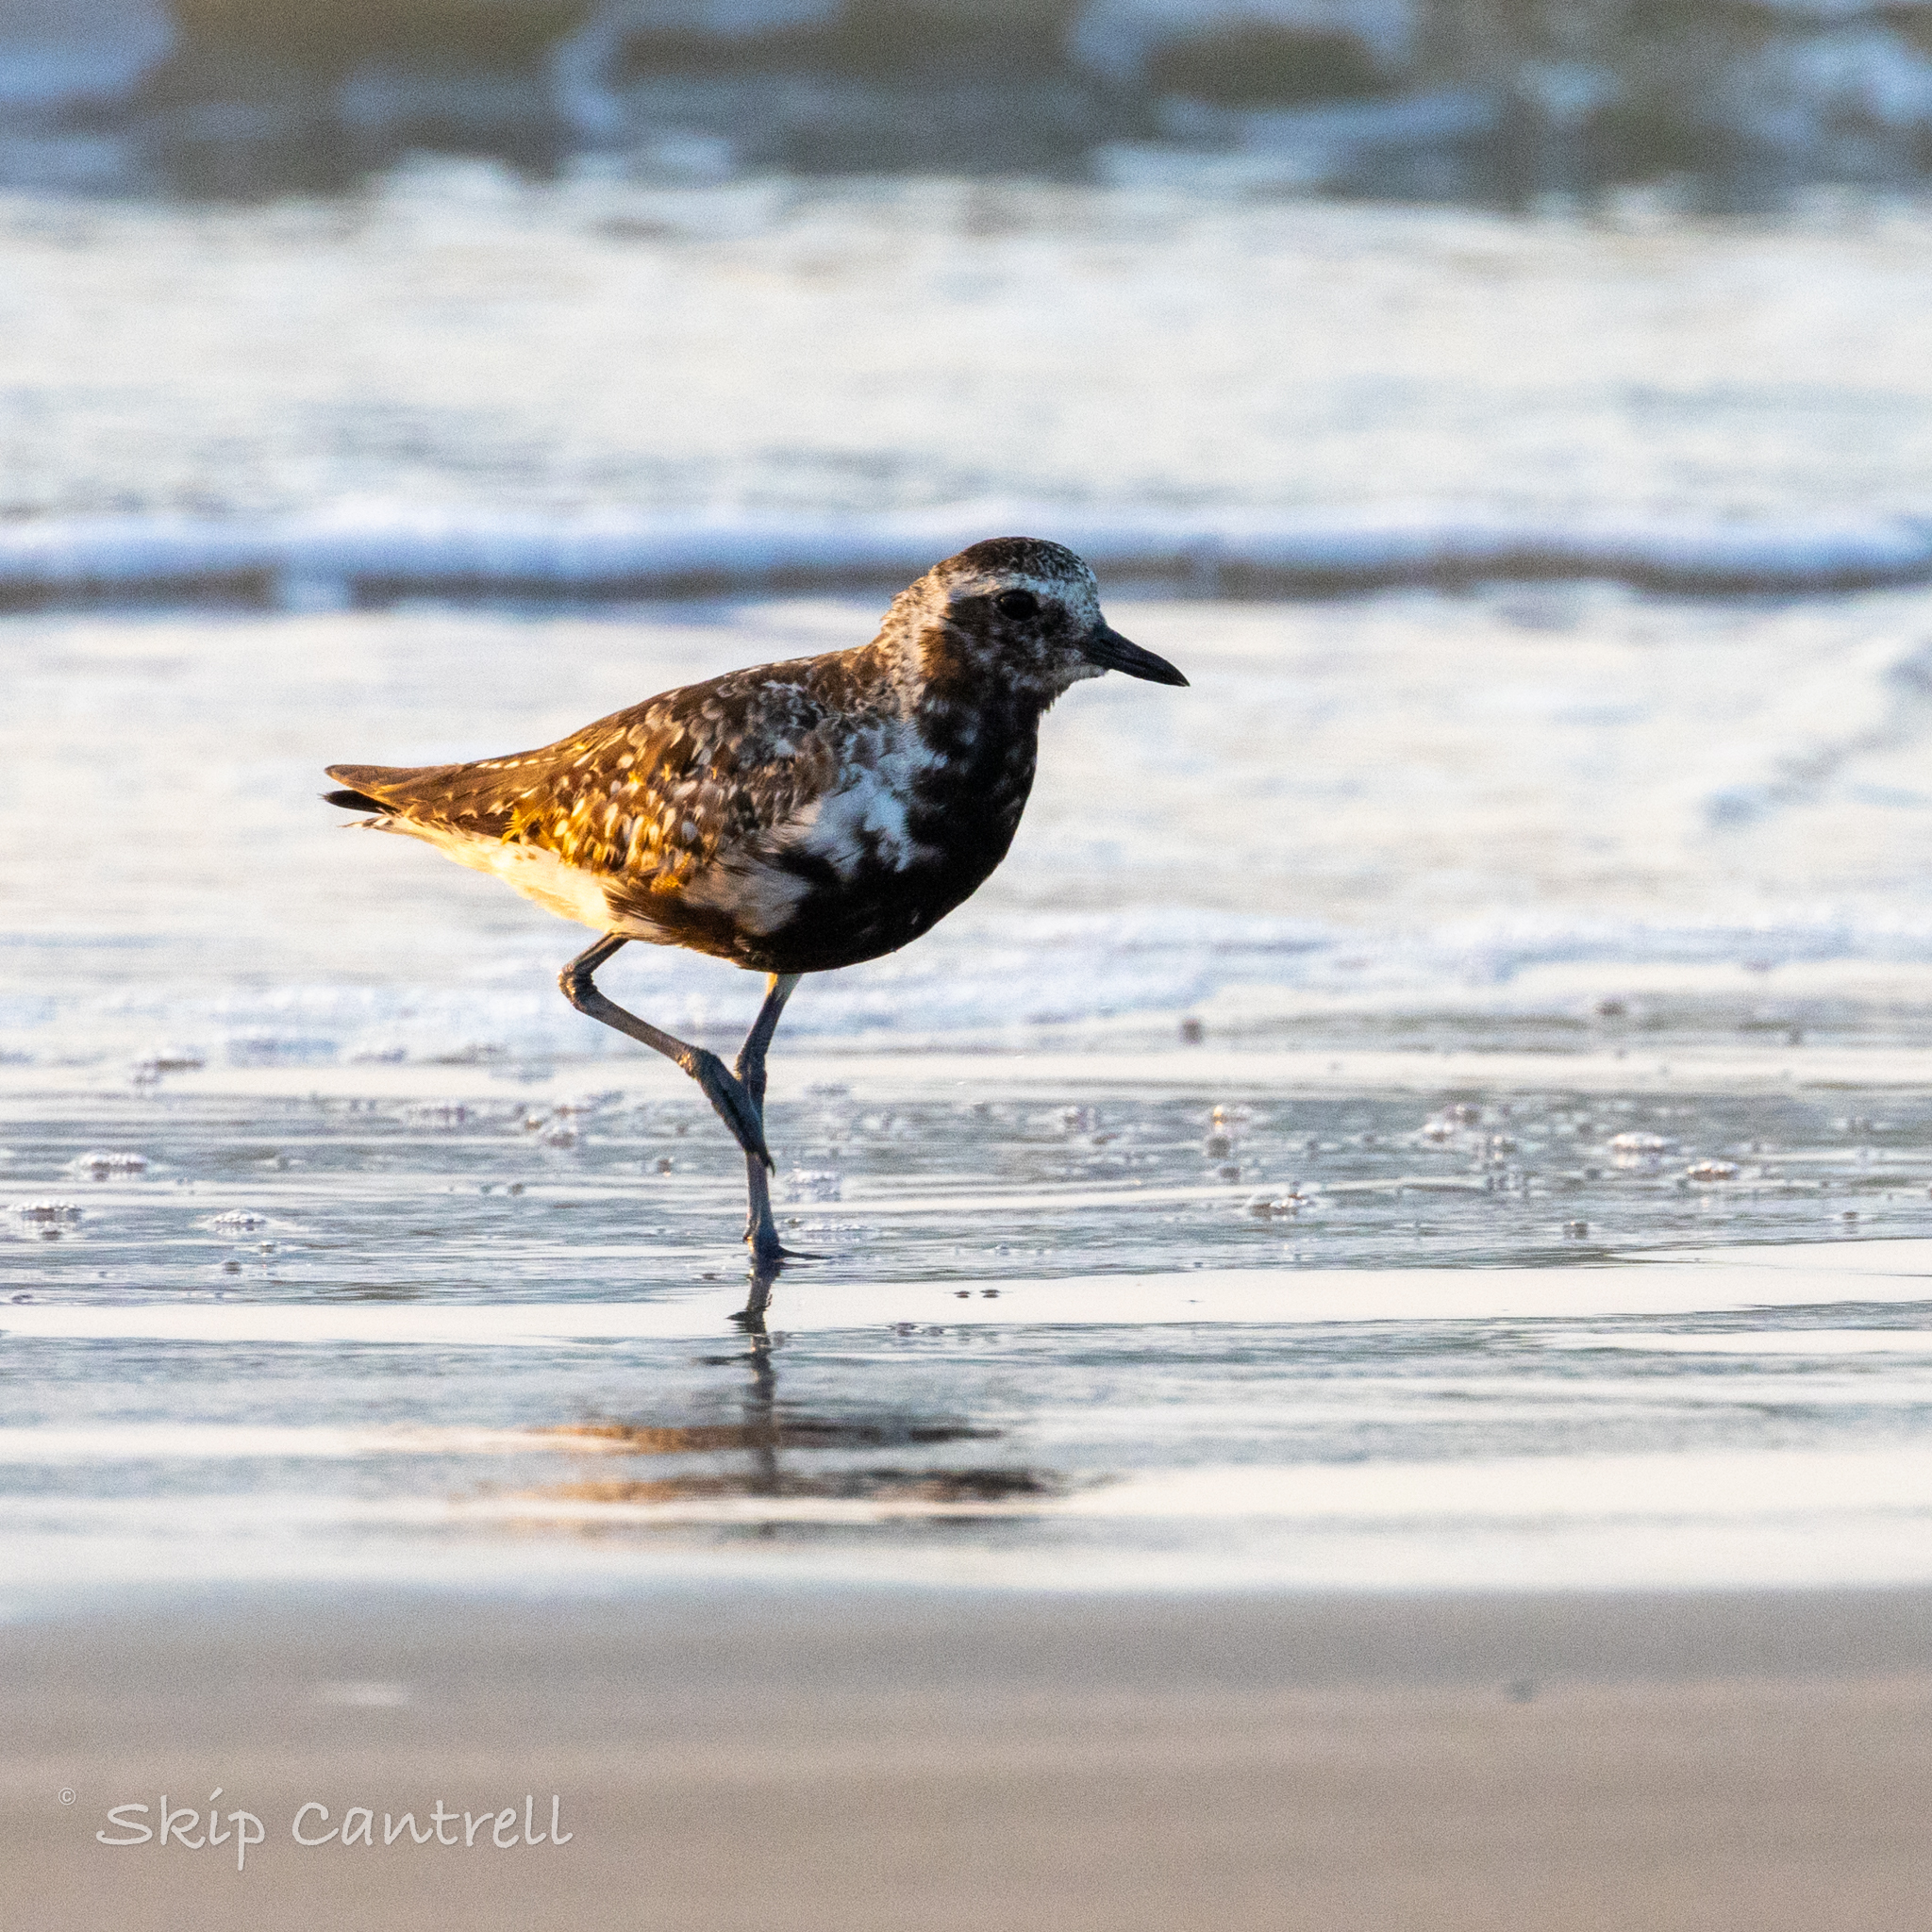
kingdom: Animalia
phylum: Chordata
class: Aves
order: Charadriiformes
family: Charadriidae
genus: Pluvialis
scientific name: Pluvialis squatarola
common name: Grey plover
